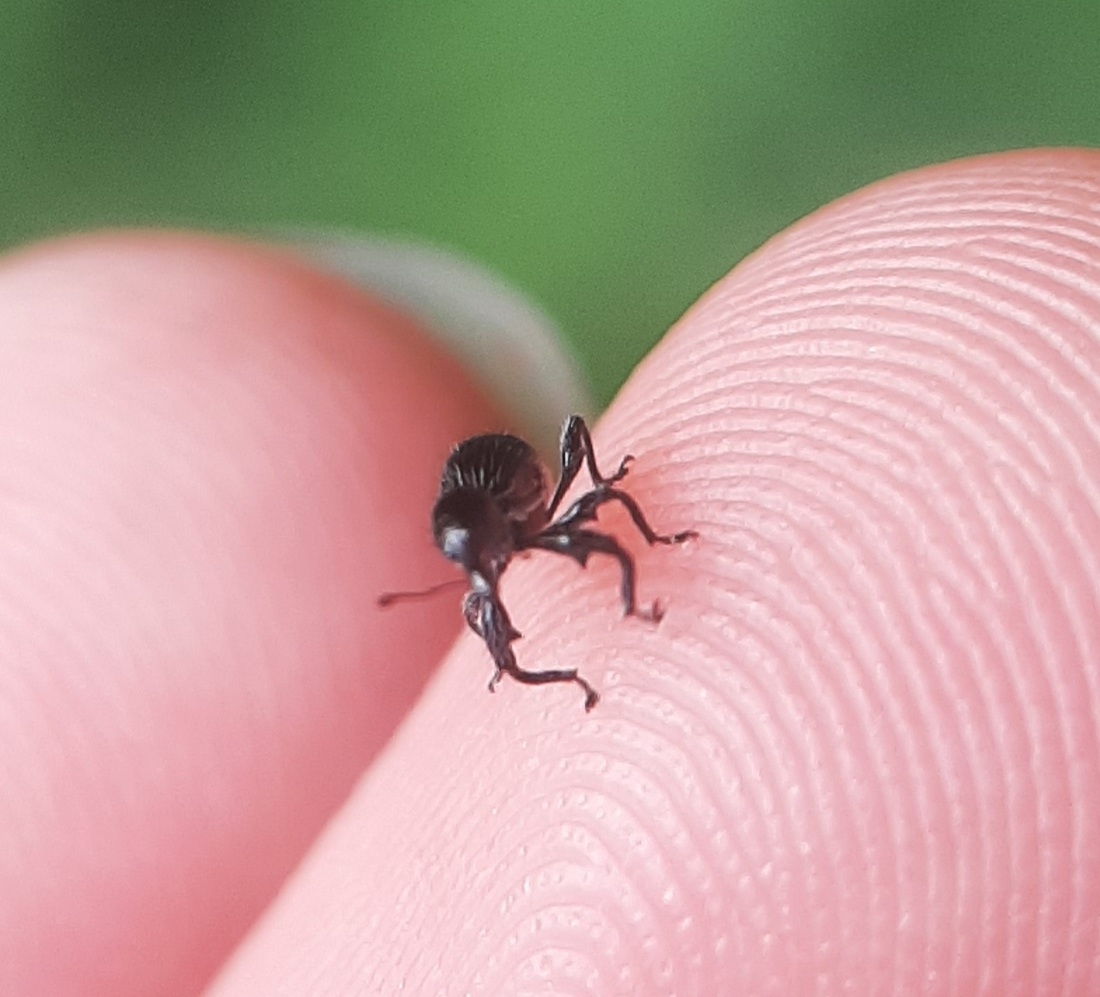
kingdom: Animalia
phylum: Arthropoda
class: Insecta
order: Coleoptera
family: Curculionidae
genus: Myrmex
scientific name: Myrmex myrmex
